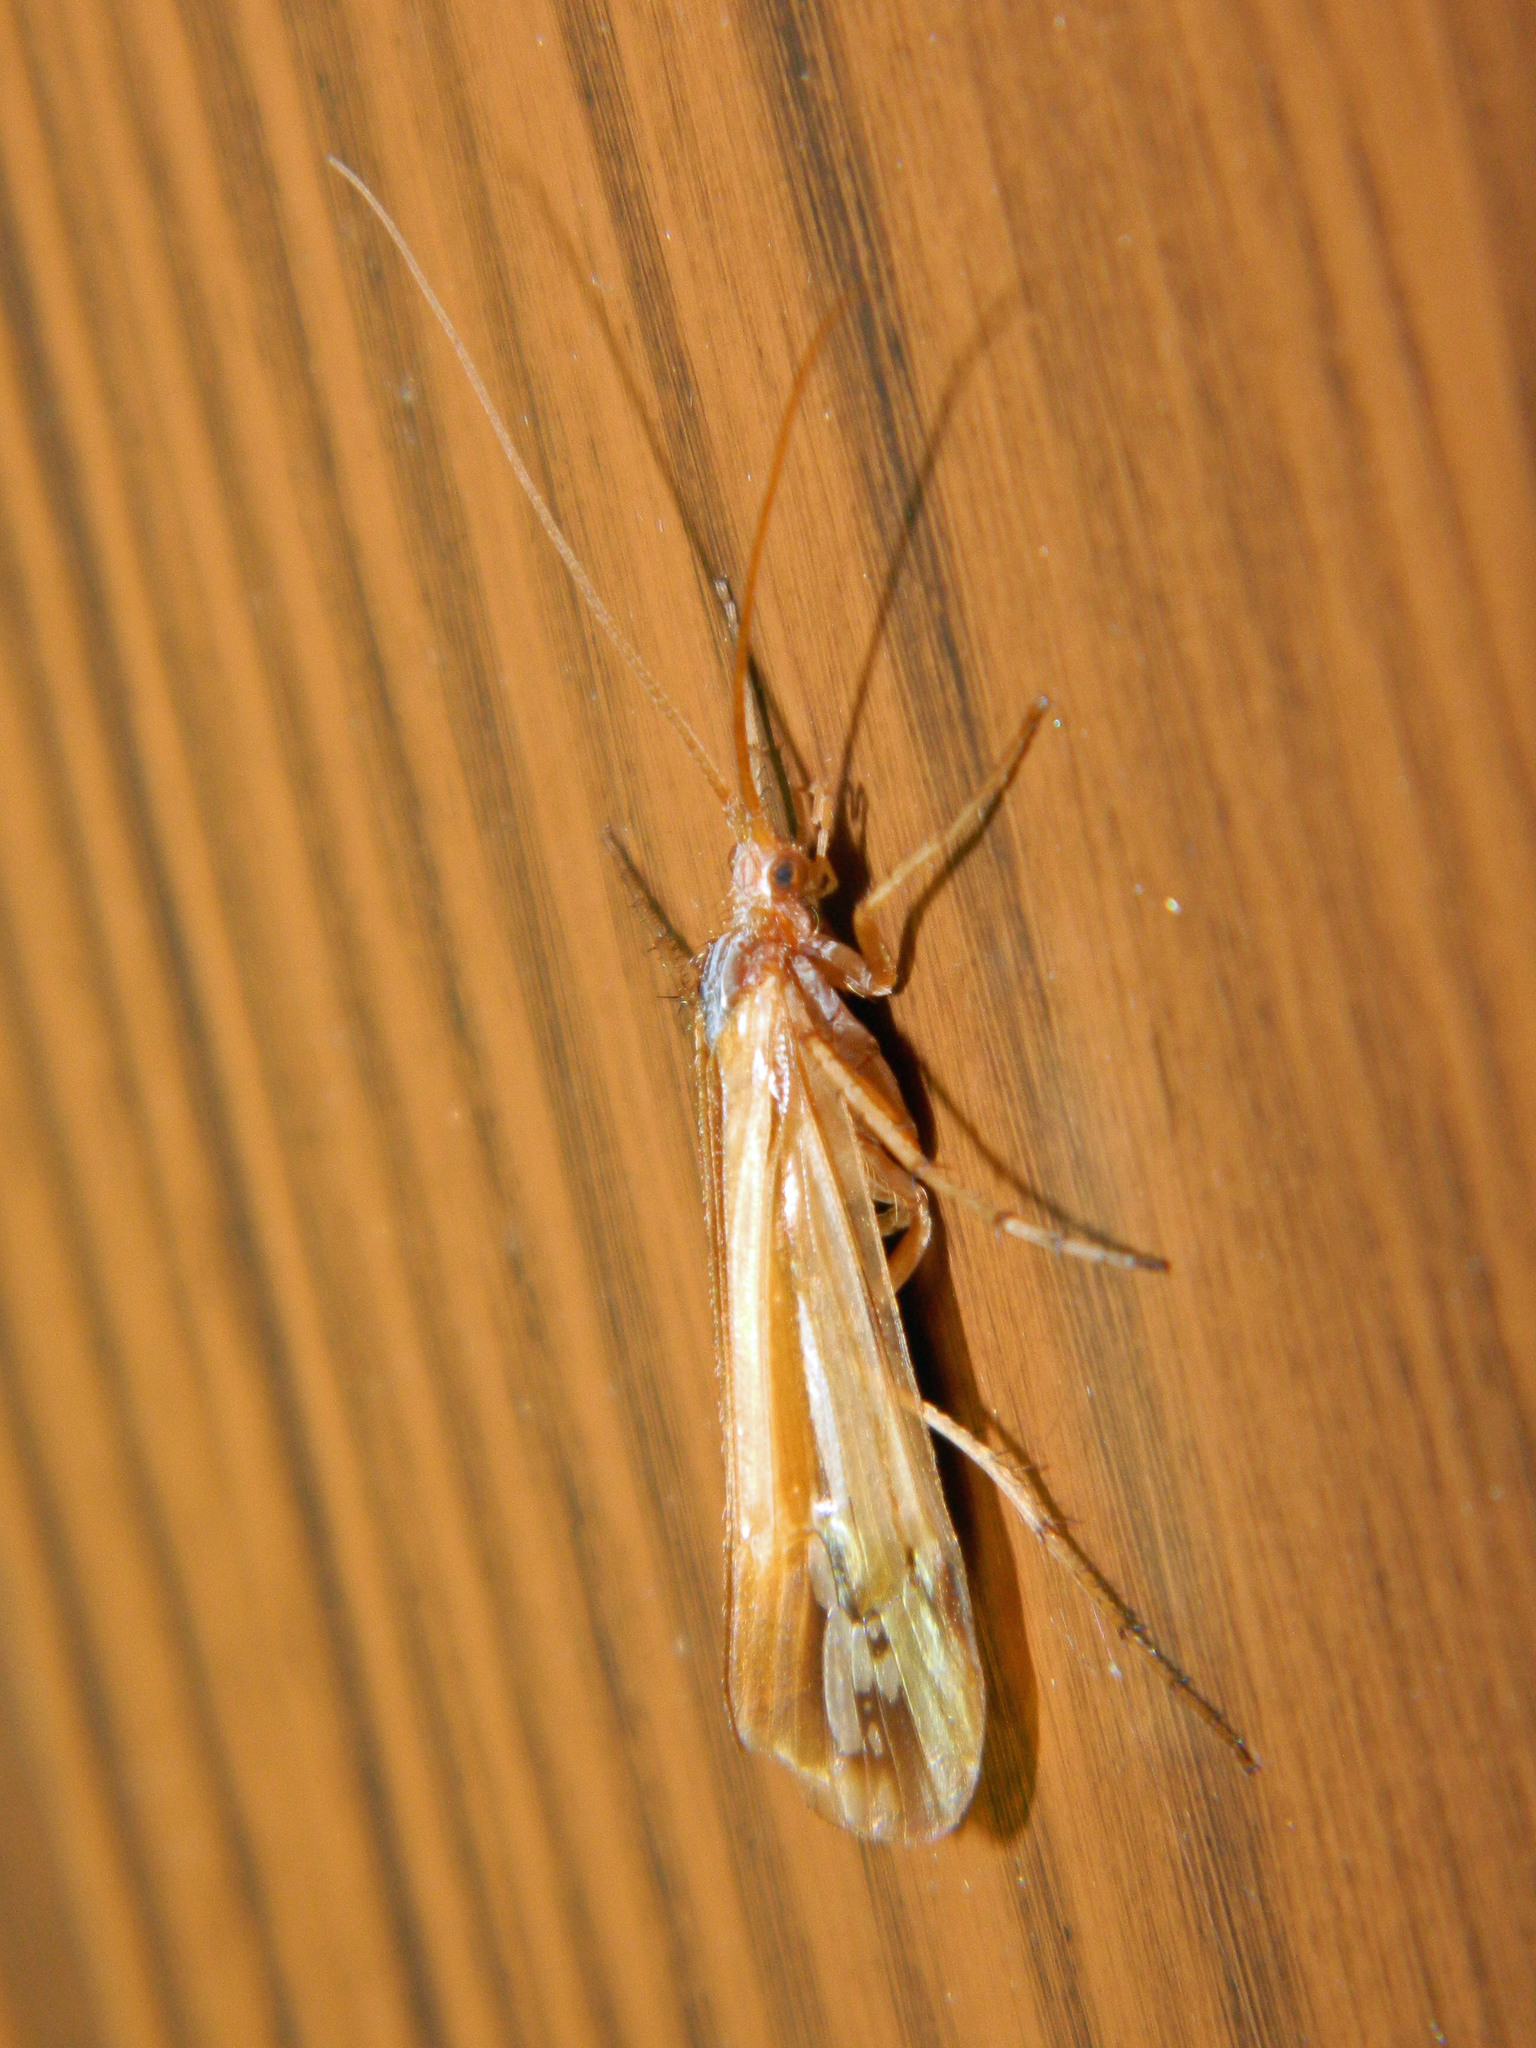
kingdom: Animalia
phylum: Arthropoda
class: Insecta
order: Trichoptera
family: Limnephilidae
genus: Limnephilus
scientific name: Limnephilus ornatus
